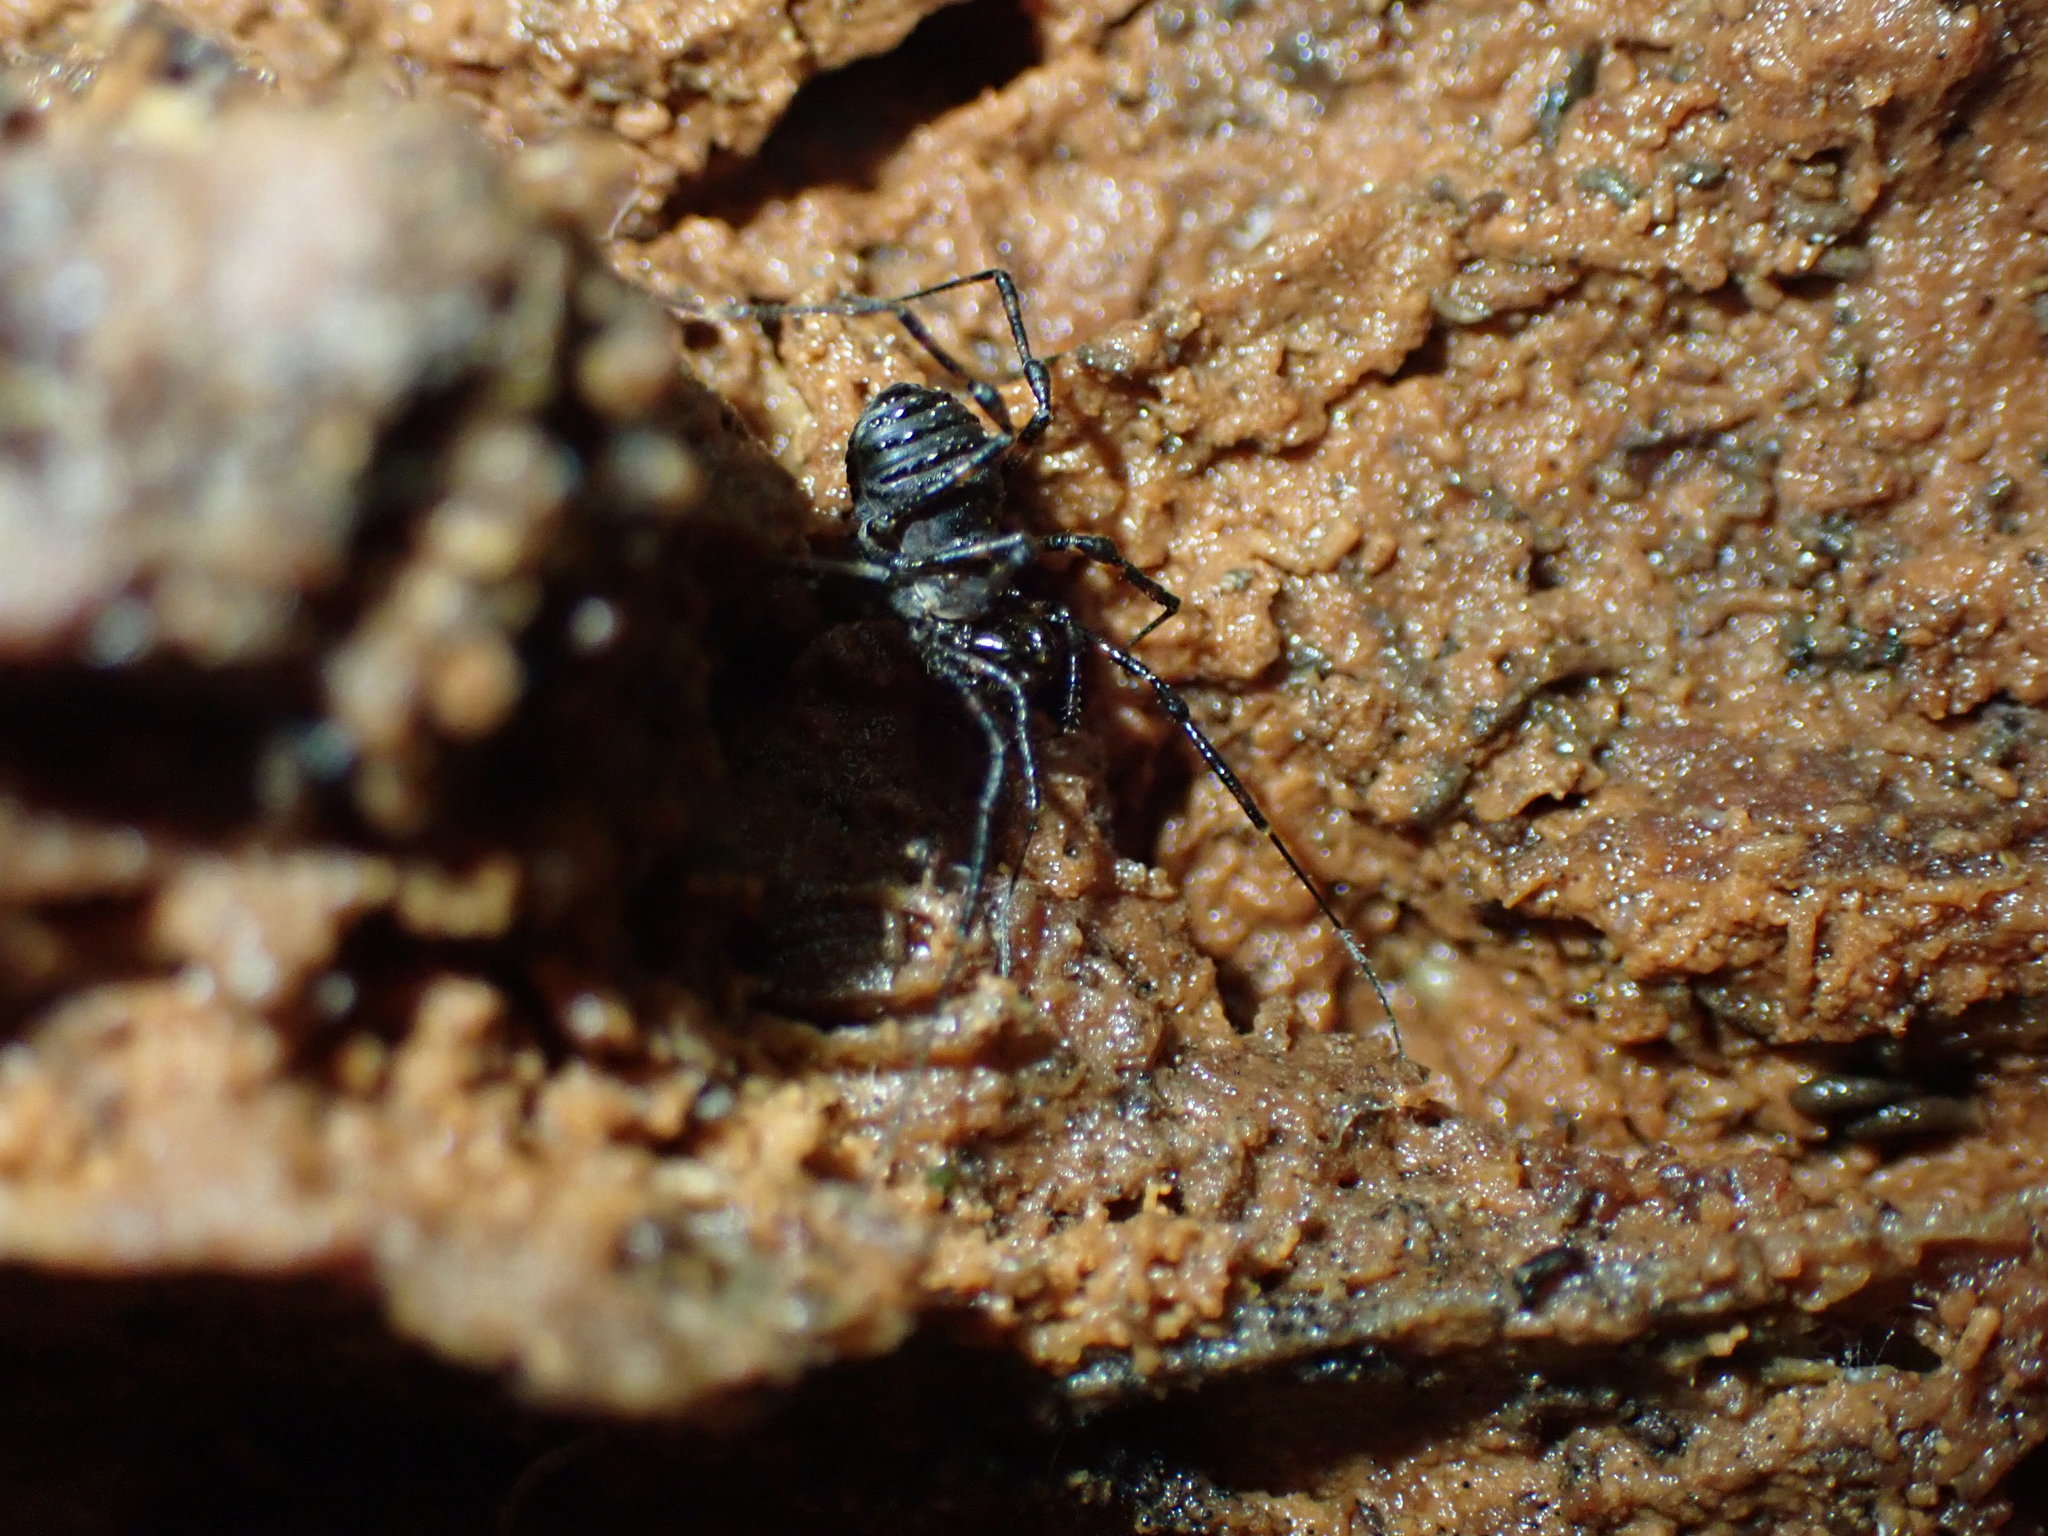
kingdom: Animalia
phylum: Arthropoda
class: Arachnida
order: Opiliones
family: Triaenonychidae
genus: Hendea
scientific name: Hendea myersi
